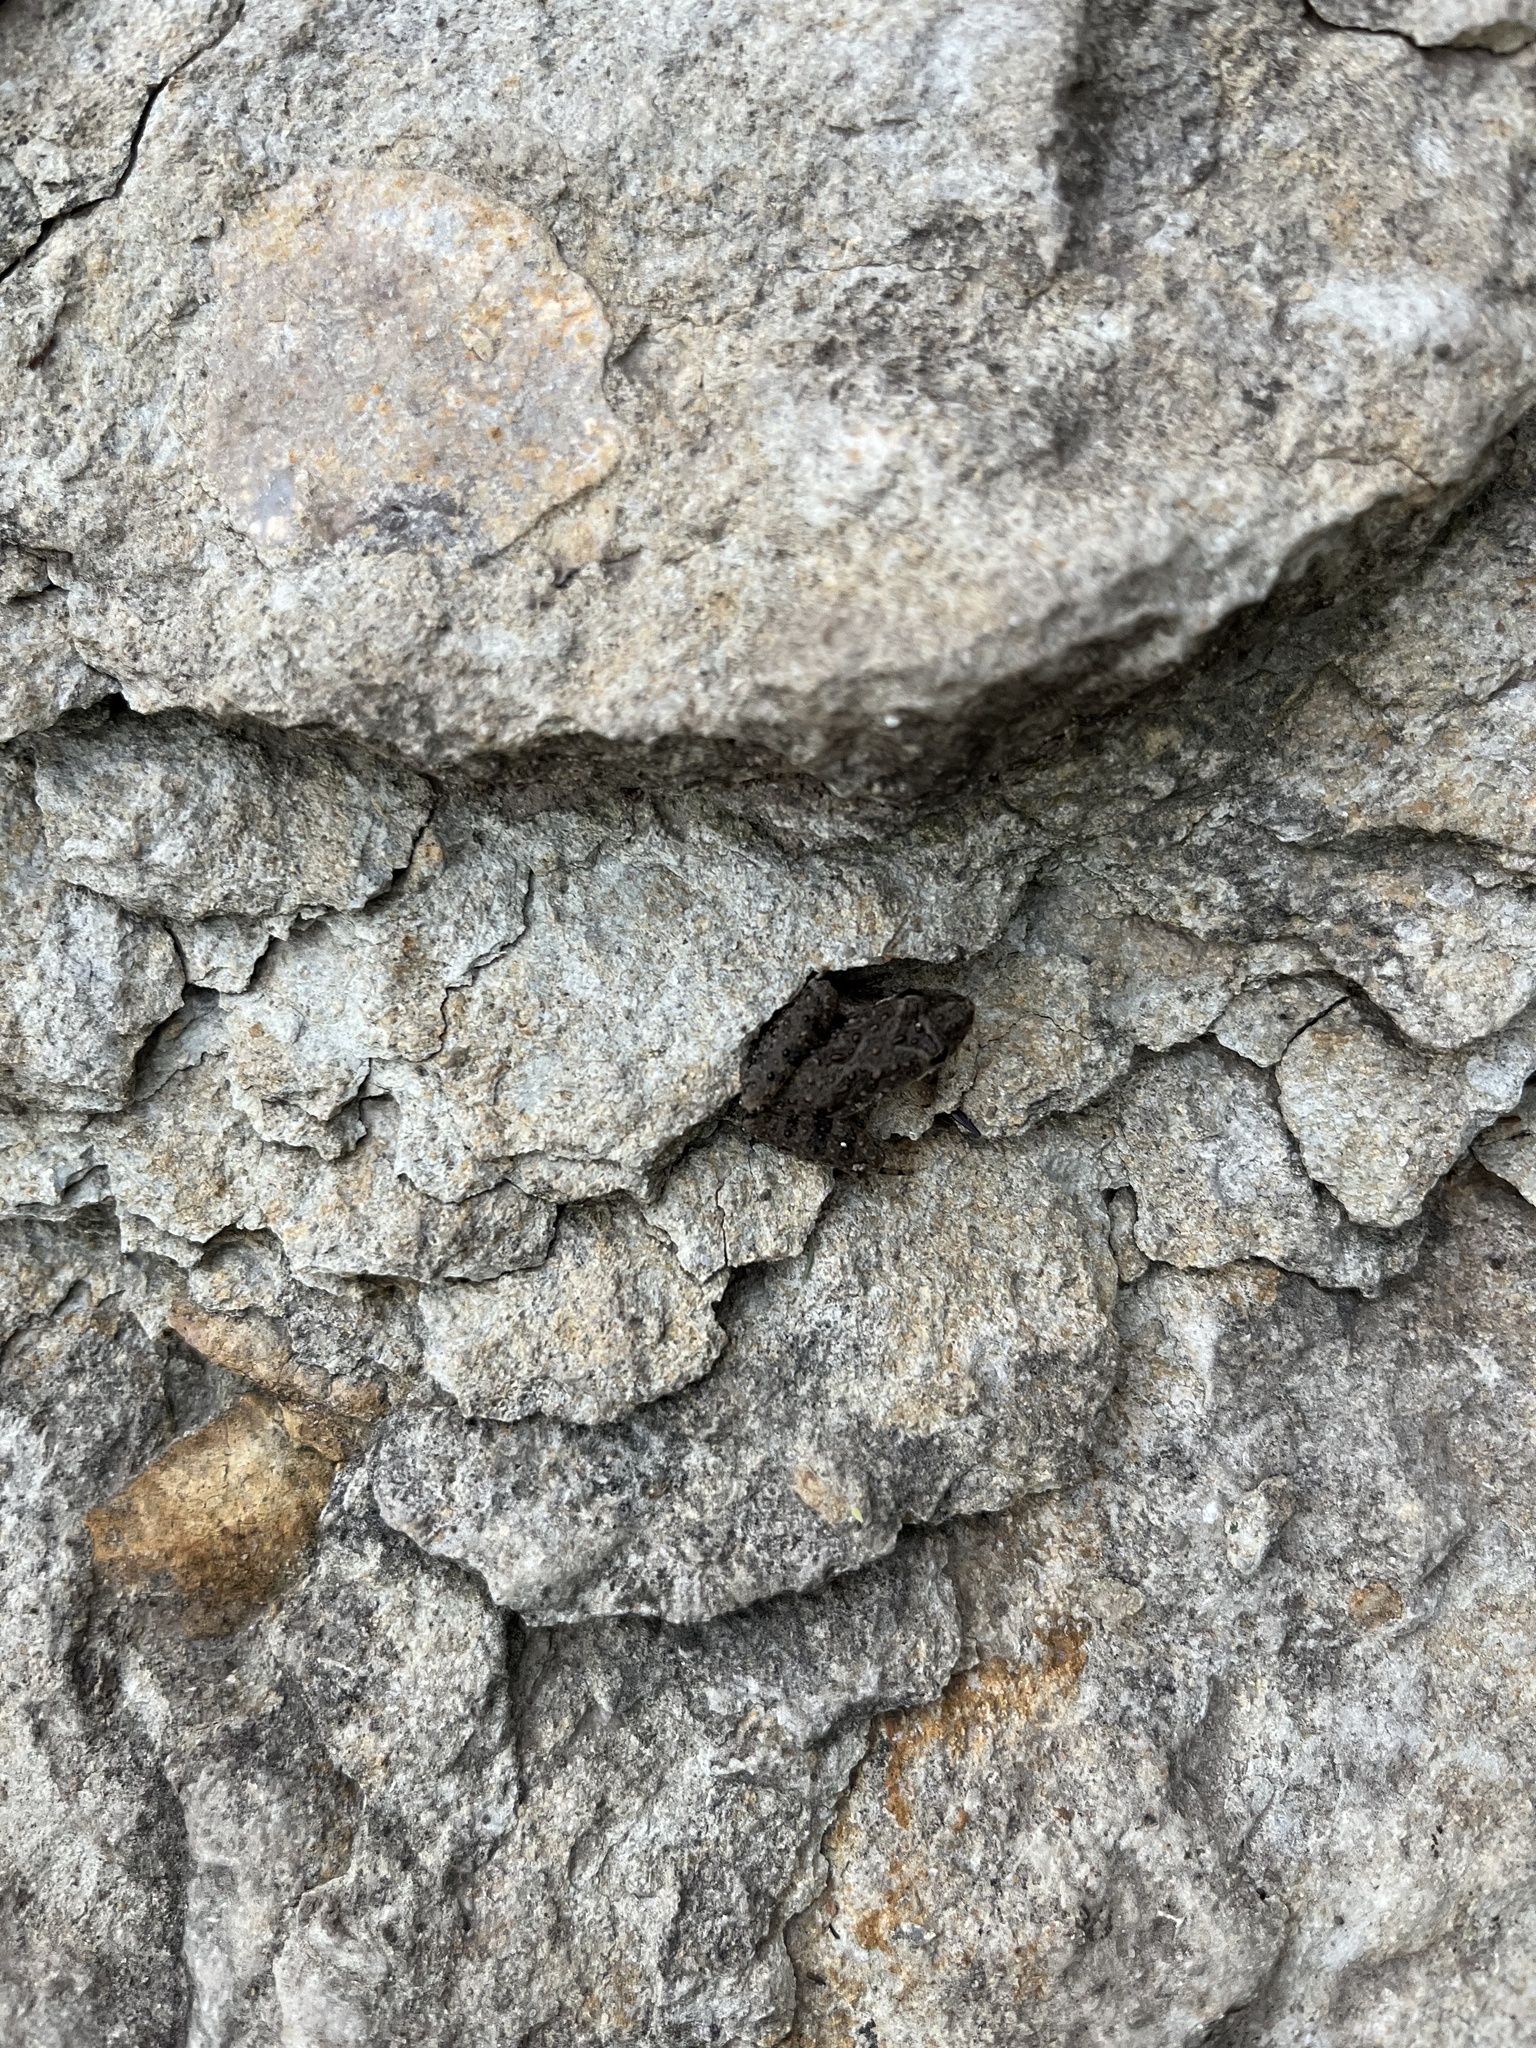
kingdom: Animalia
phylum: Chordata
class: Amphibia
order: Anura
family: Hylidae
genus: Acris
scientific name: Acris blanchardi
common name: Blanchard's cricket frog
